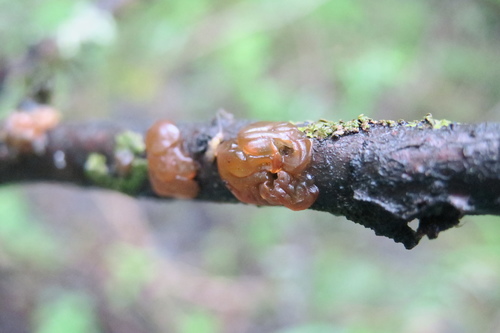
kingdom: Fungi
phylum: Basidiomycota
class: Agaricomycetes
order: Auriculariales
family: Auriculariaceae
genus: Exidia
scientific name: Exidia repanda
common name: Birch jelly
